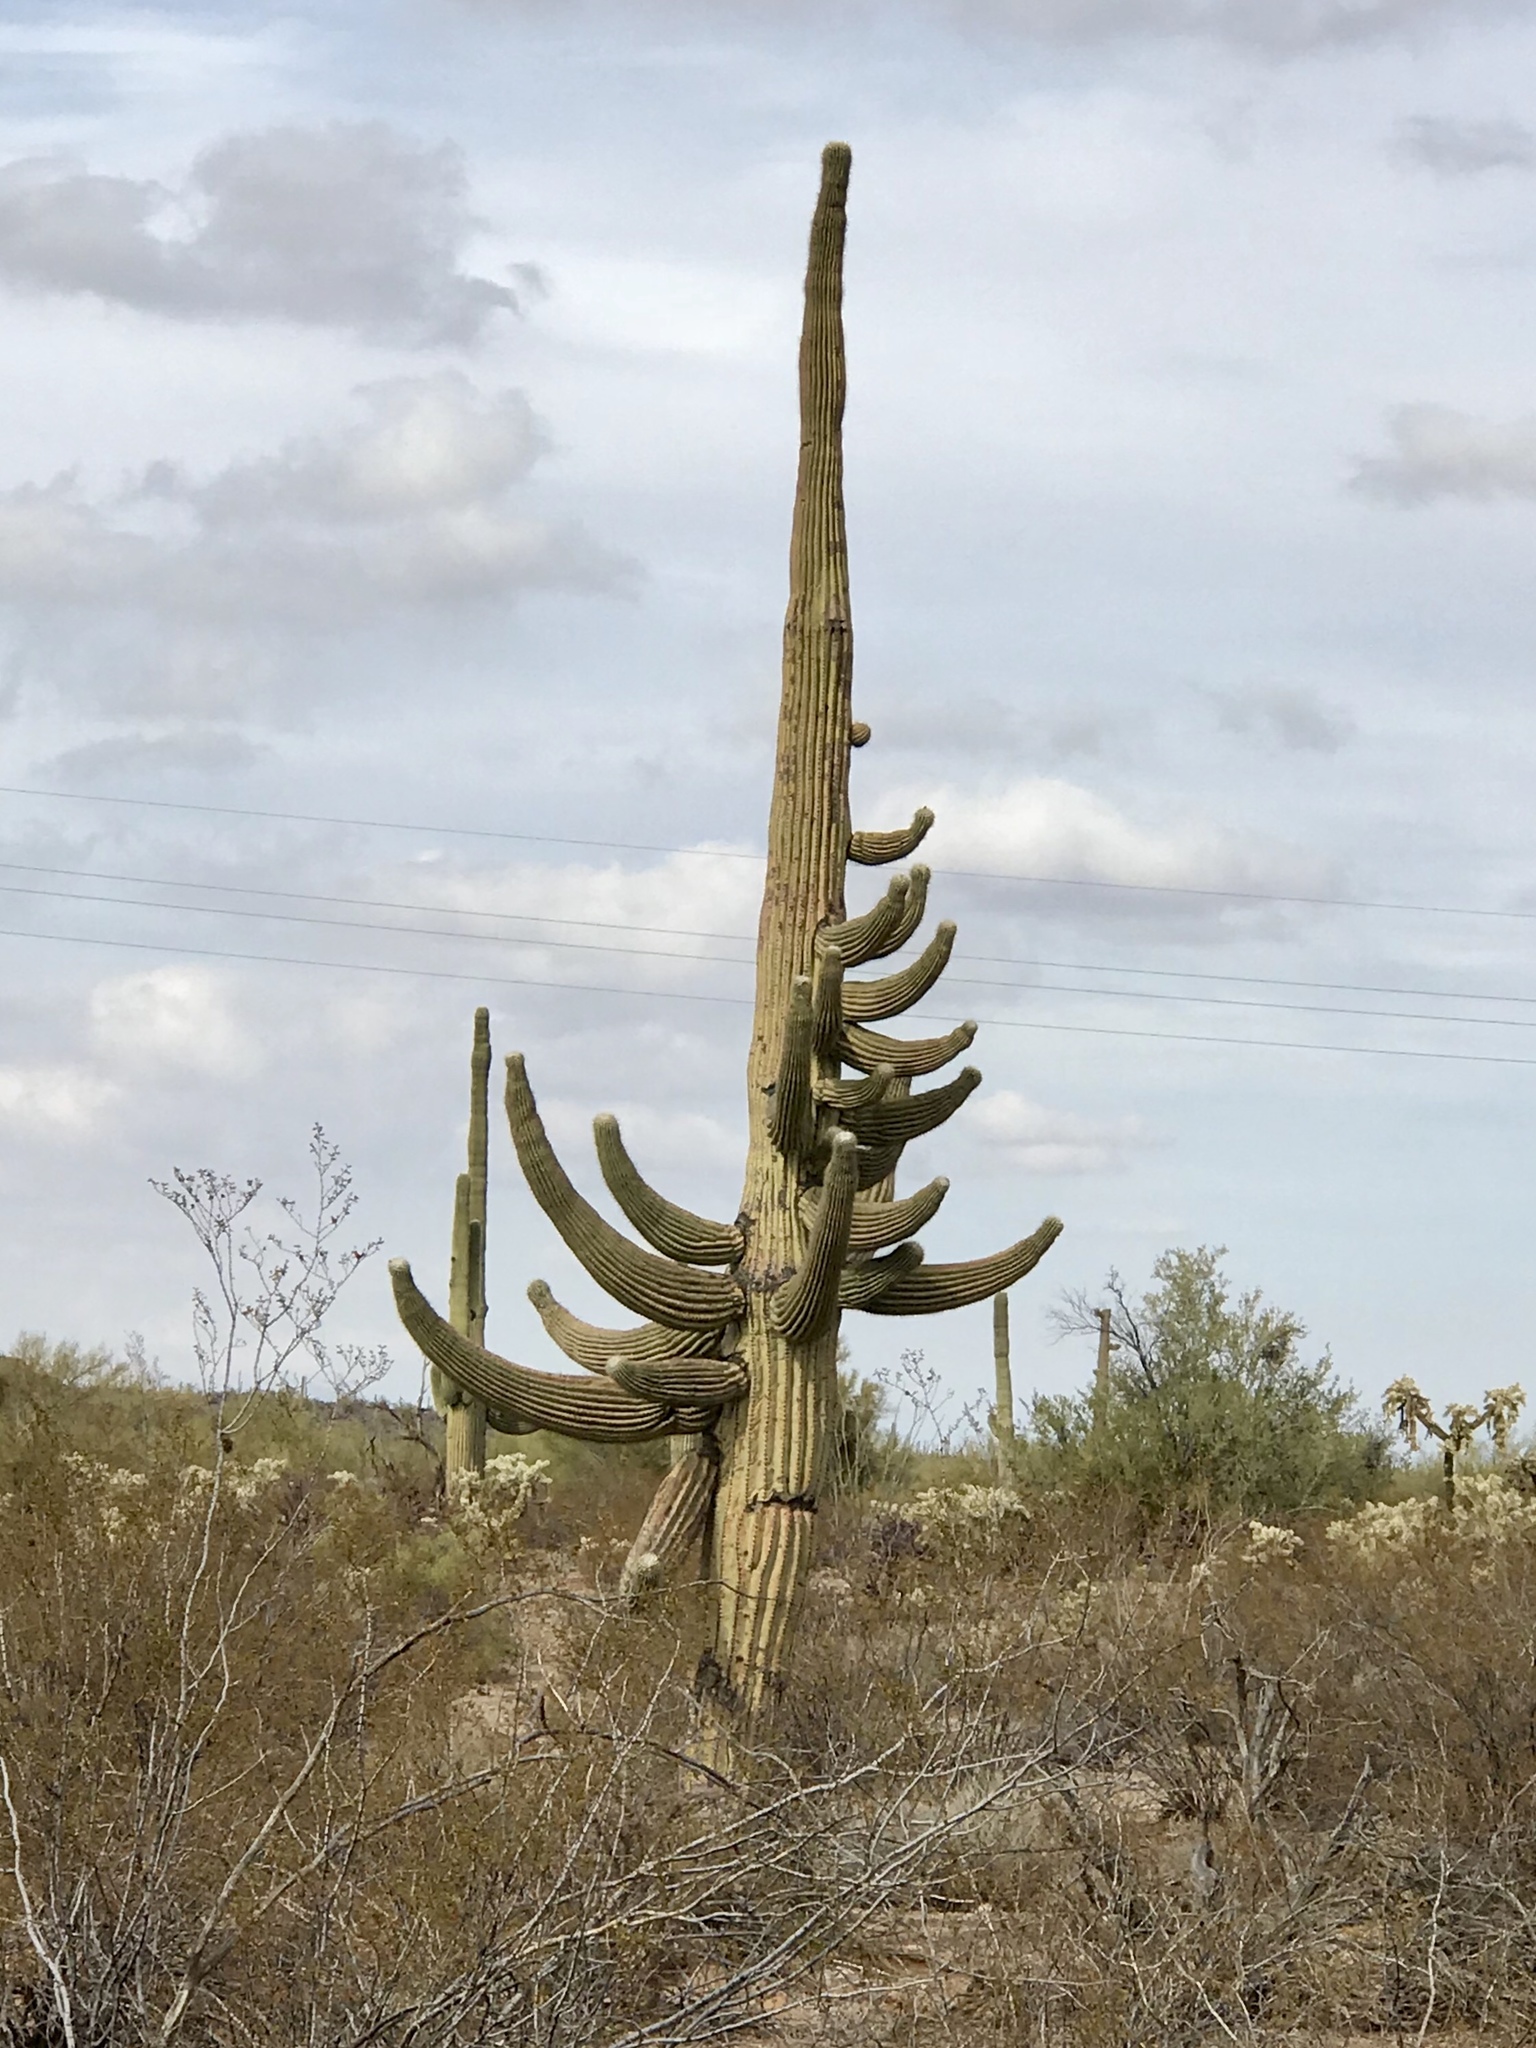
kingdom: Plantae
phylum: Tracheophyta
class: Magnoliopsida
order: Caryophyllales
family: Cactaceae
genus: Carnegiea
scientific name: Carnegiea gigantea
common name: Saguaro
